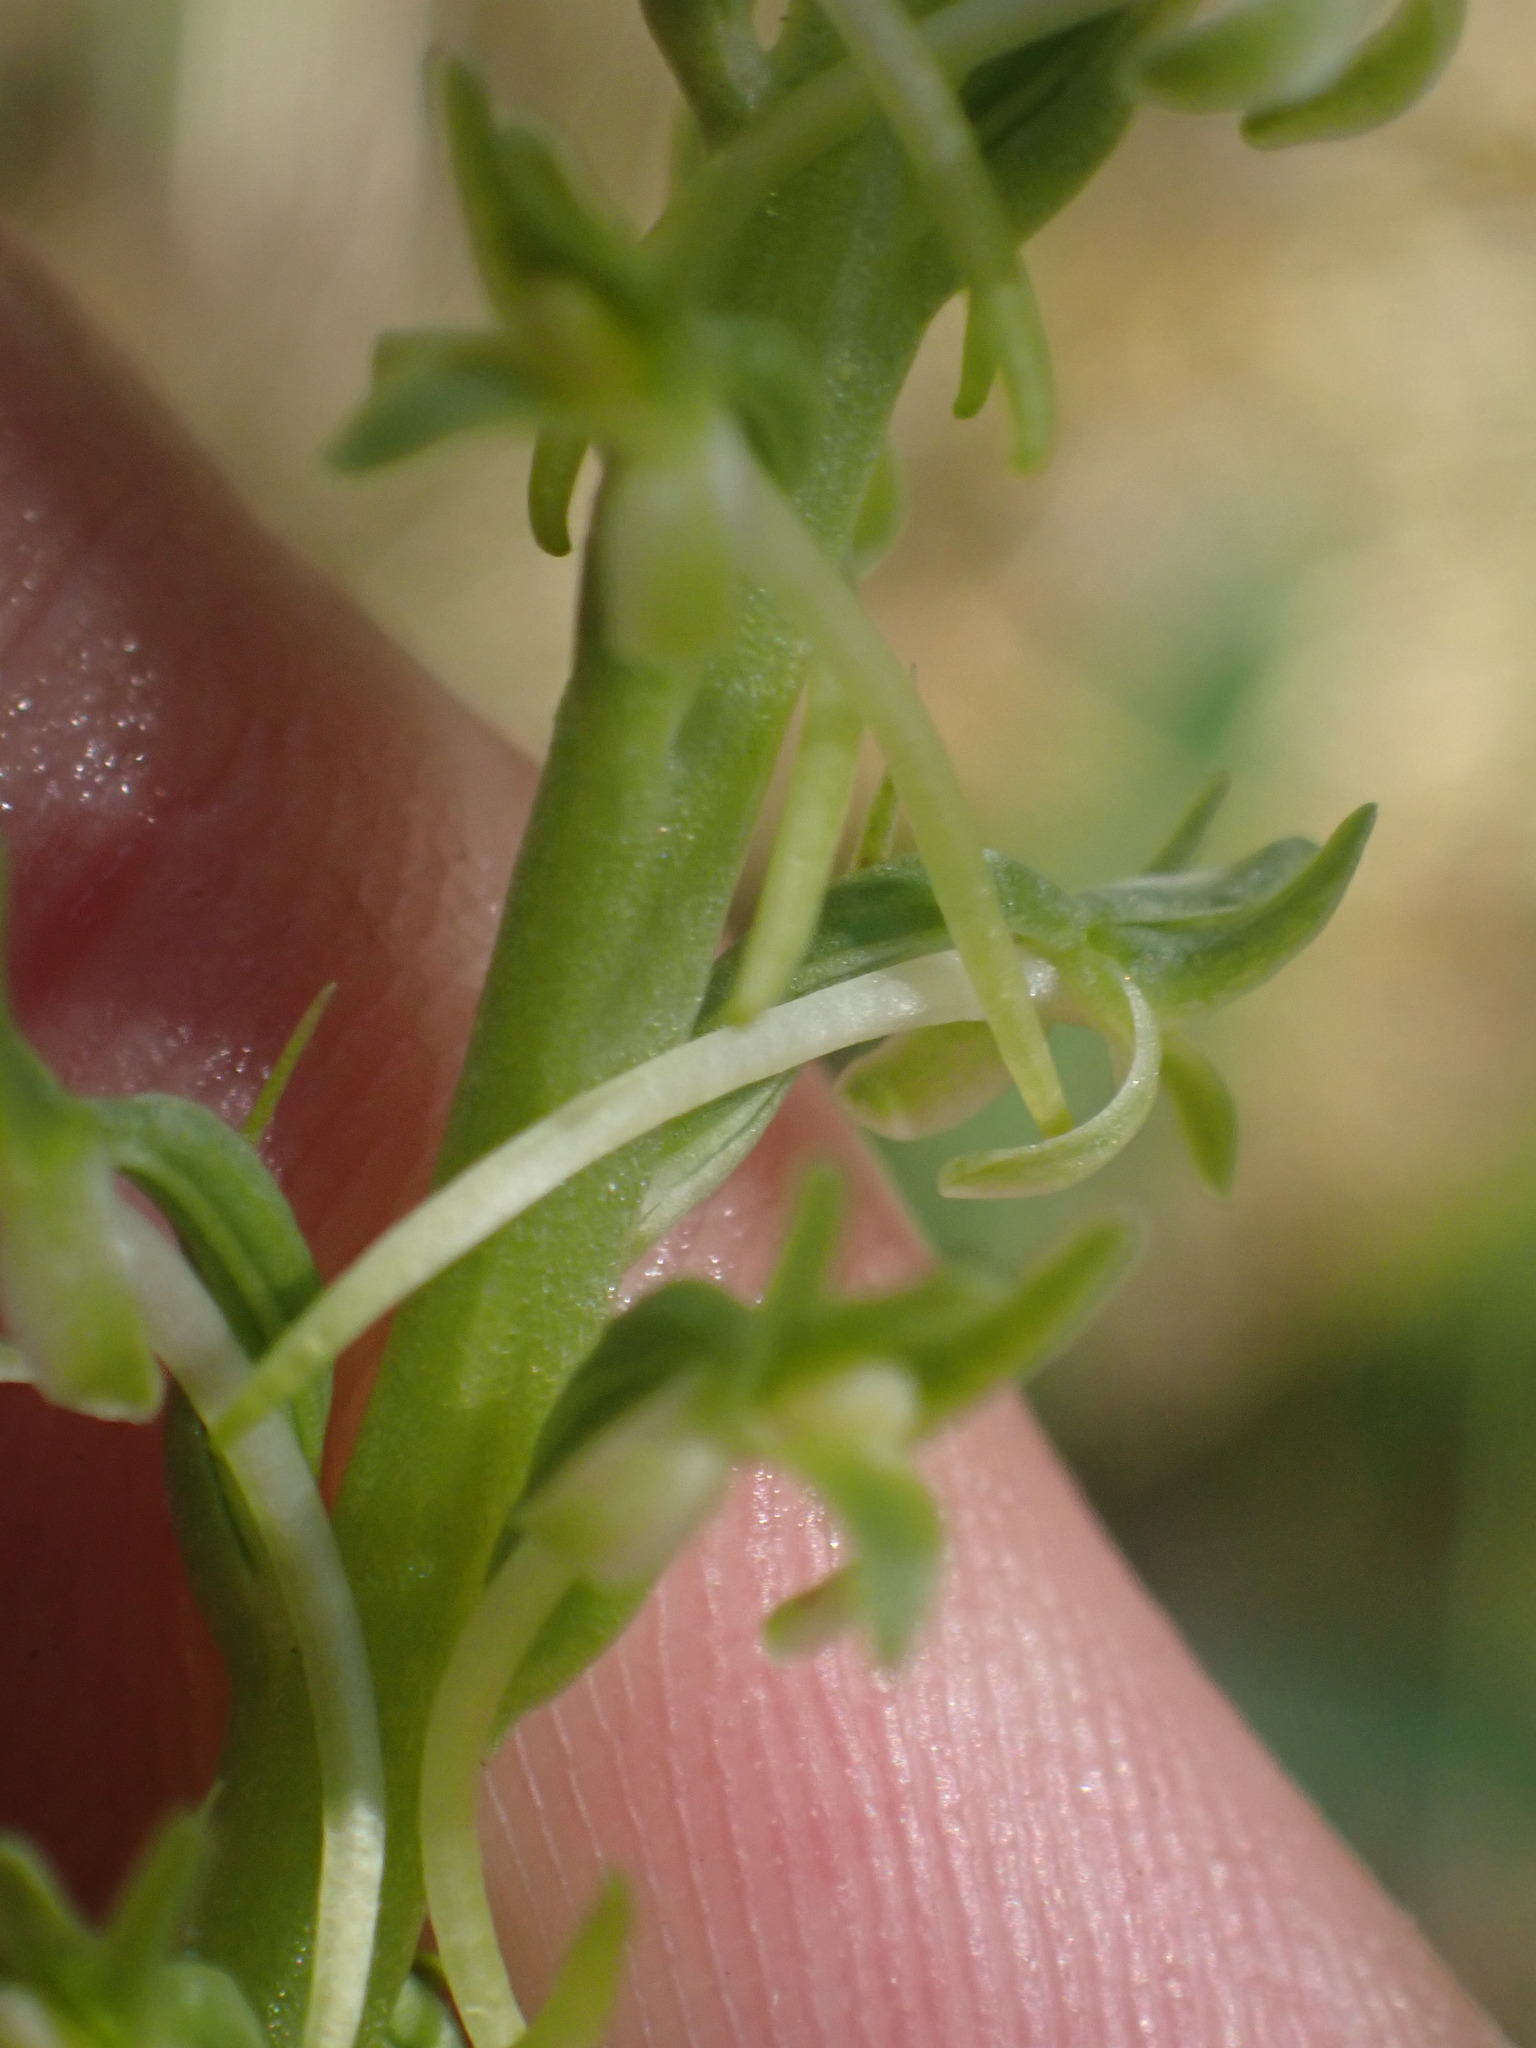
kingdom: Plantae
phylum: Tracheophyta
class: Liliopsida
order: Asparagales
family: Orchidaceae
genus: Platanthera
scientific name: Platanthera elongata
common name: Dense-flowered rein orchid
